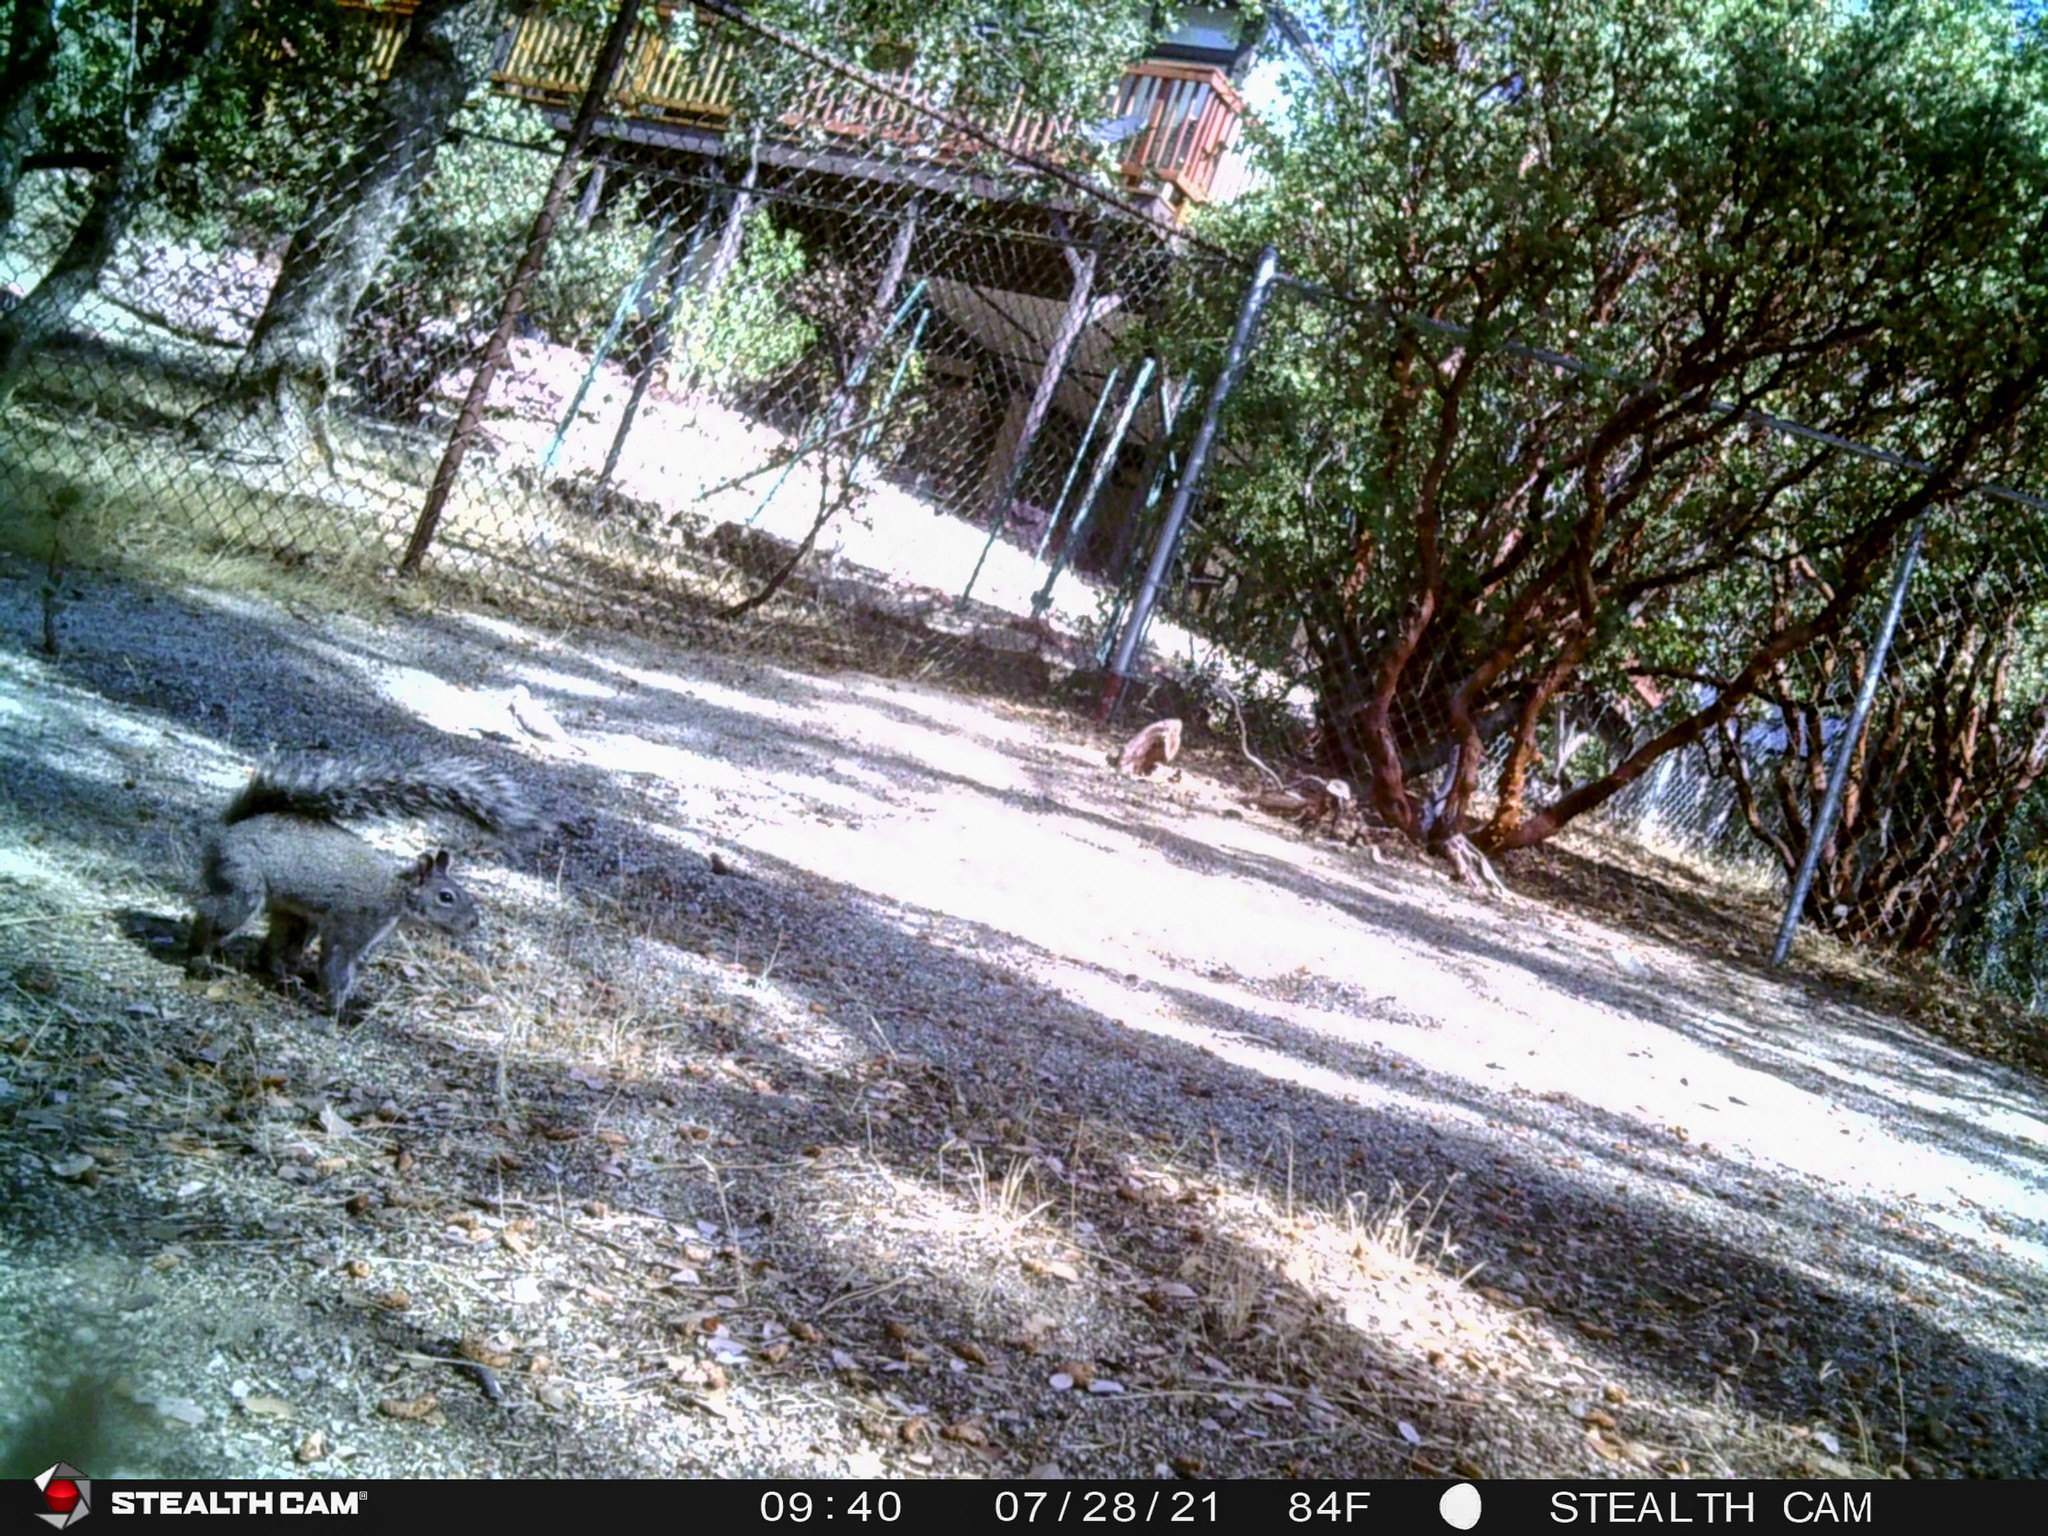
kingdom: Animalia
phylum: Chordata
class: Mammalia
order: Rodentia
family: Sciuridae
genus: Sciurus
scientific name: Sciurus griseus
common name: Western gray squirrel
